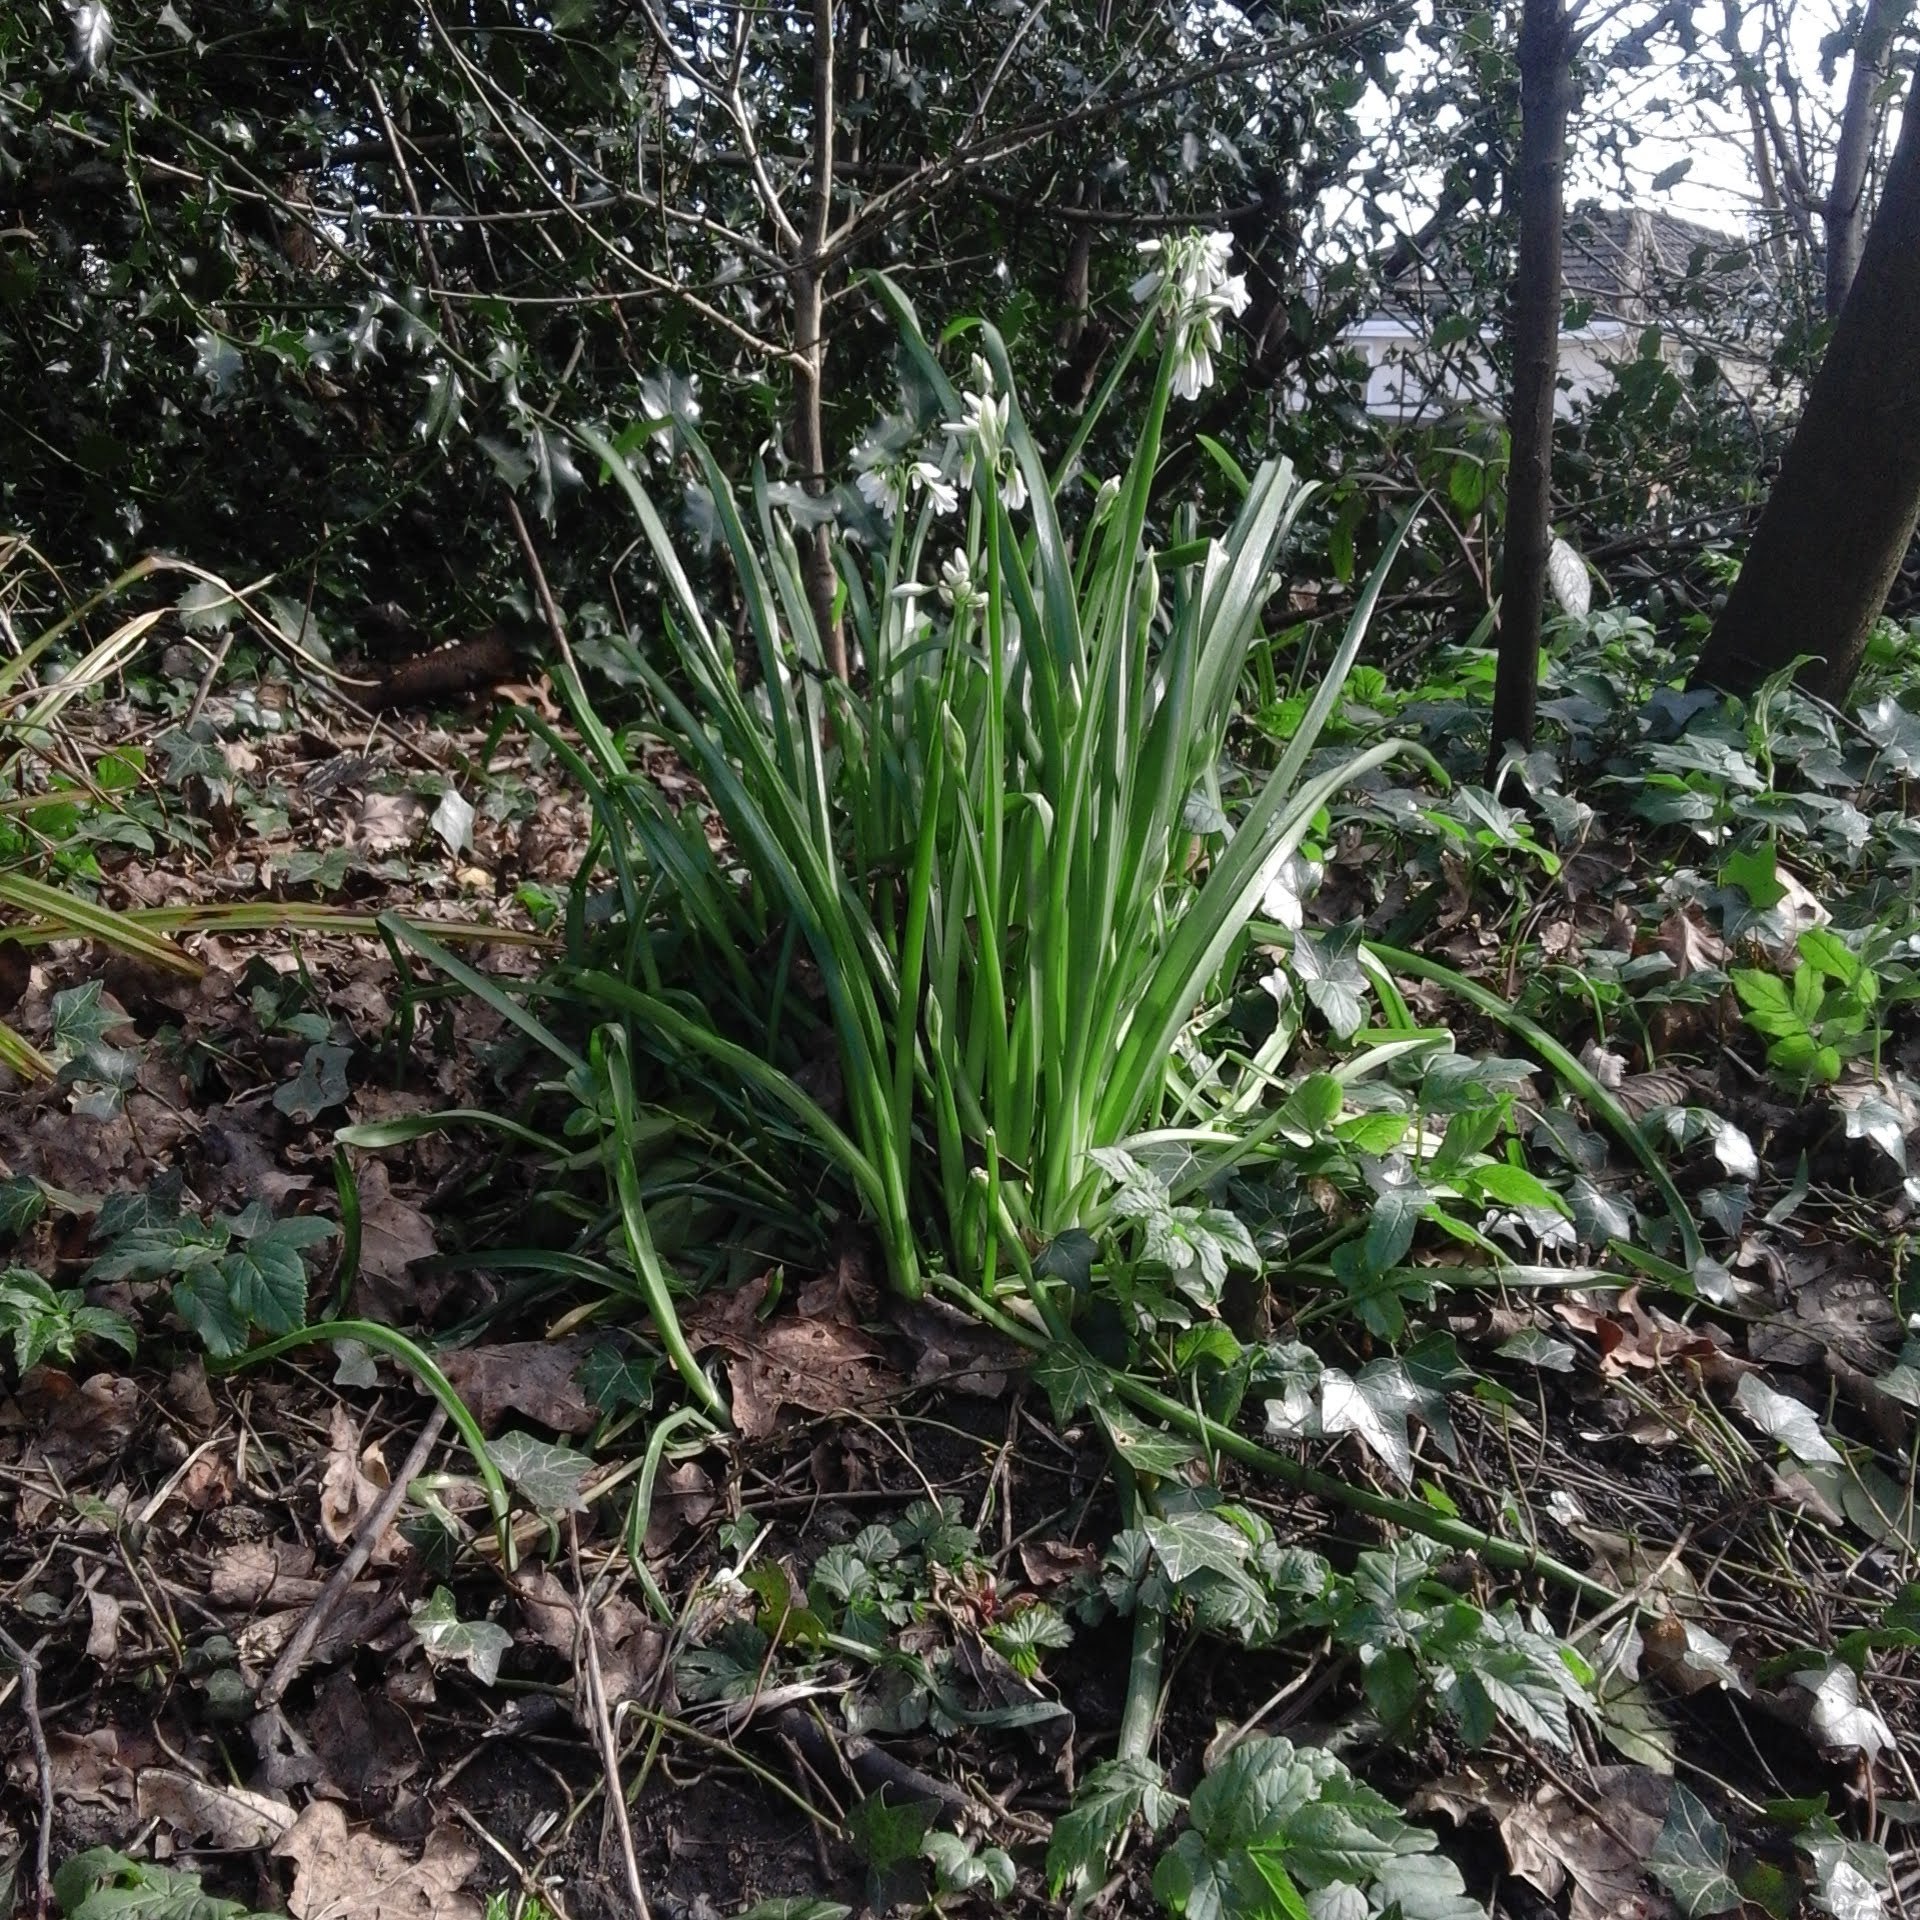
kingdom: Plantae
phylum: Tracheophyta
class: Liliopsida
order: Asparagales
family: Amaryllidaceae
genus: Allium
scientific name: Allium triquetrum
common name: Three-cornered garlic
